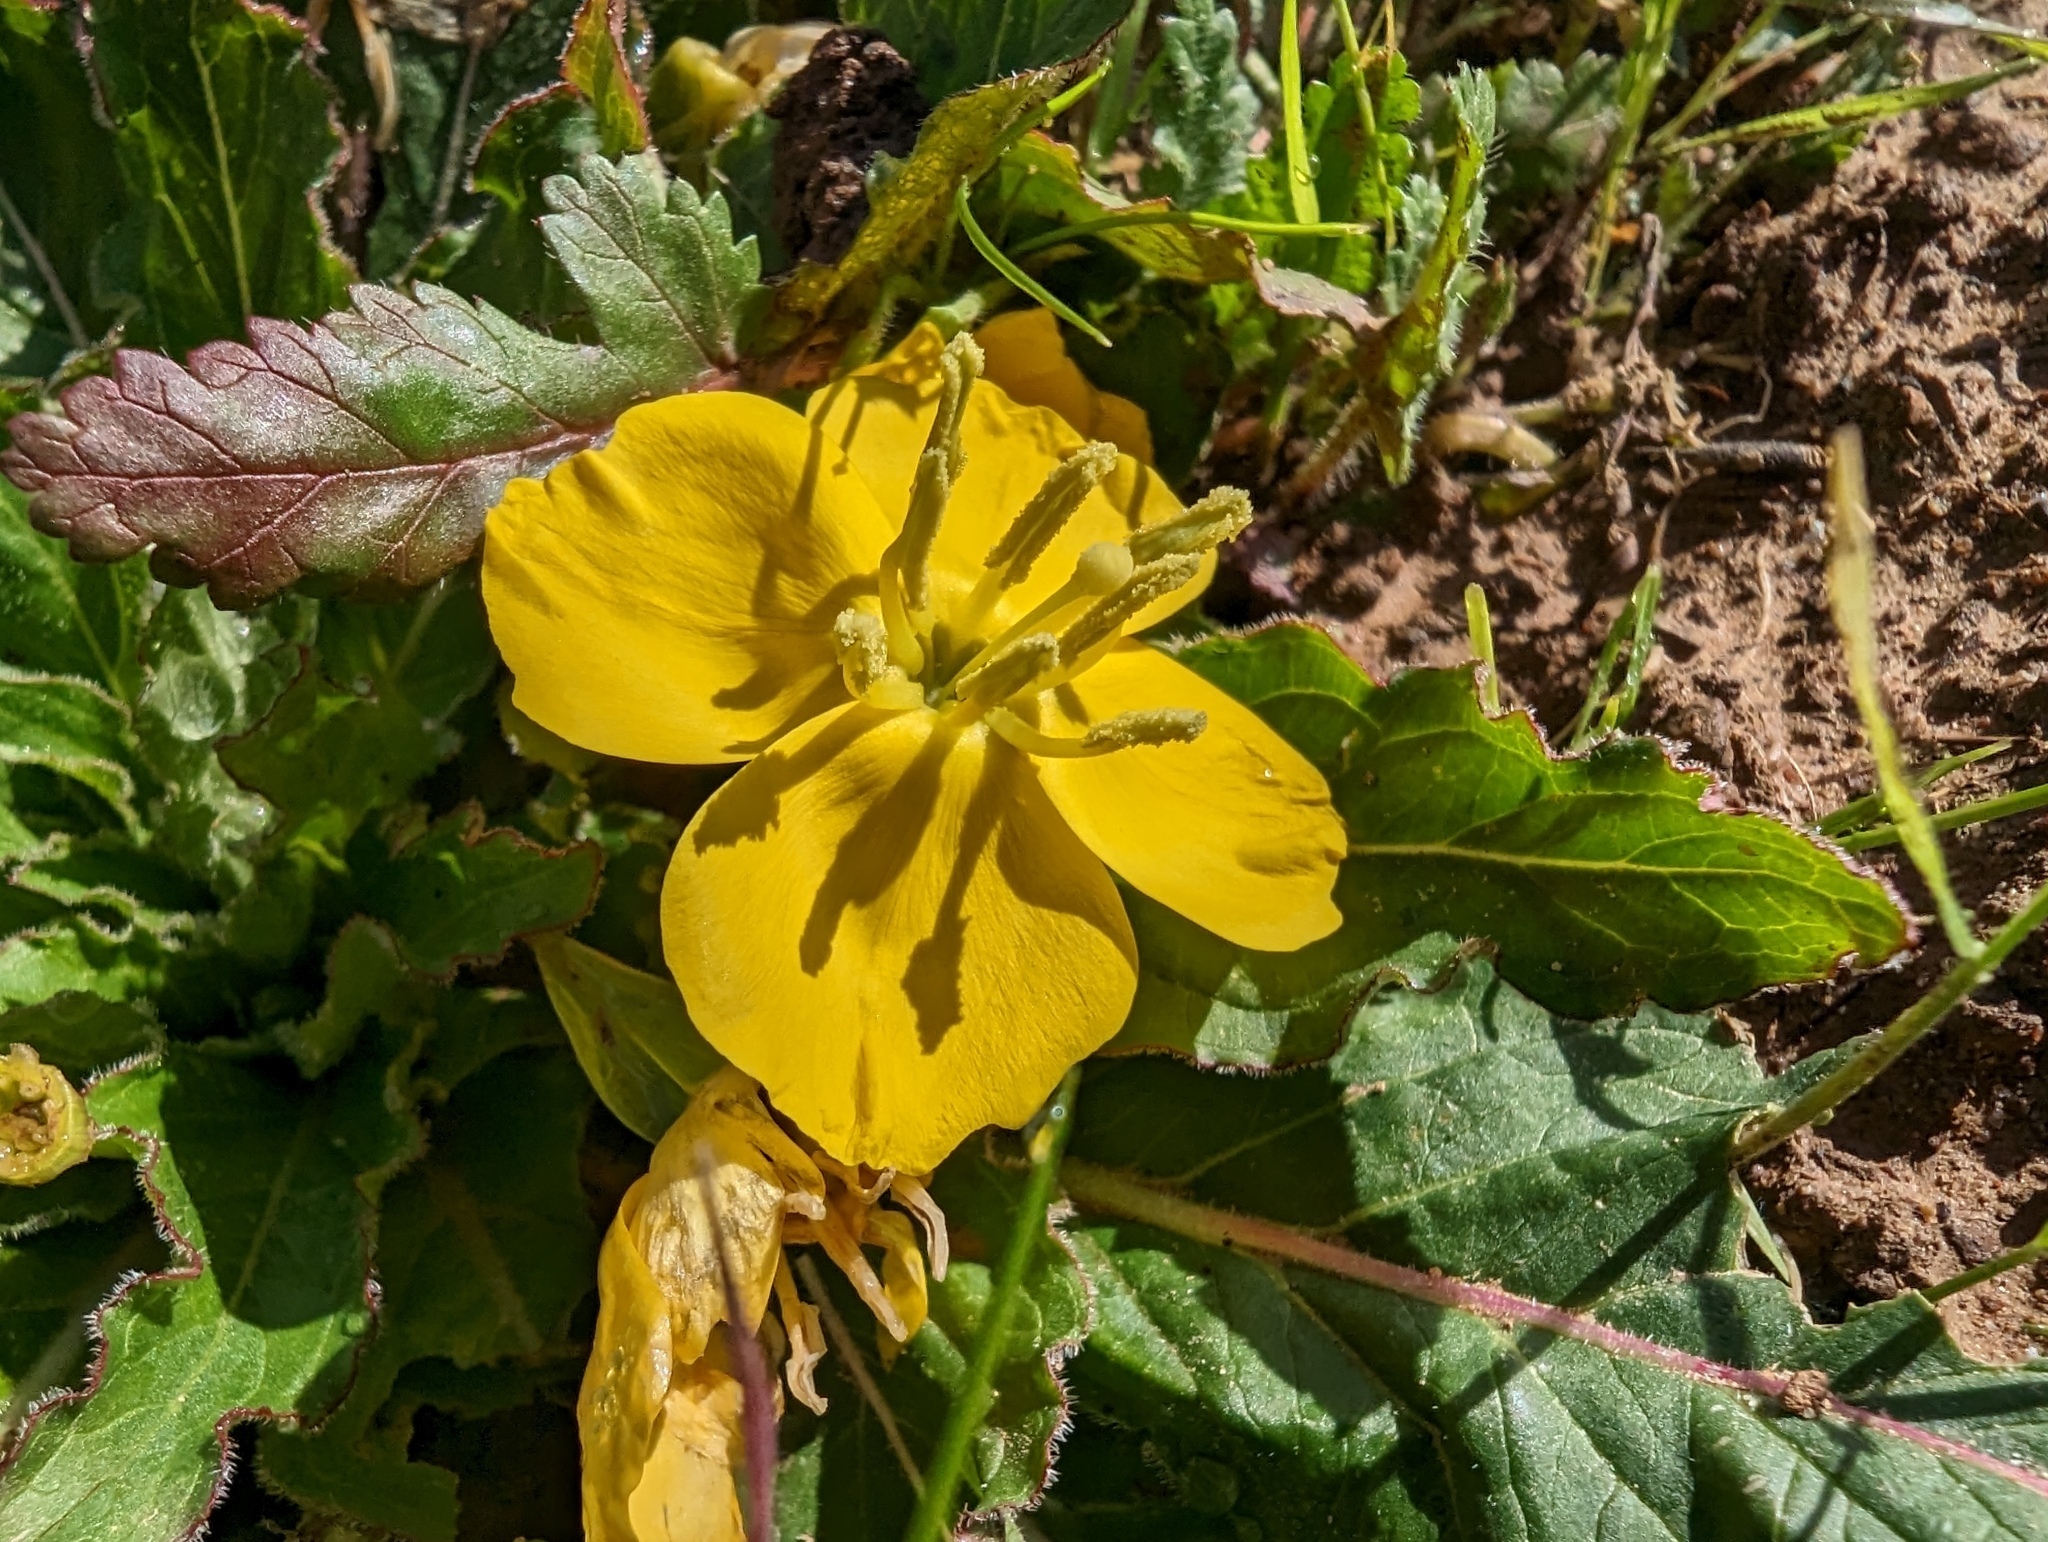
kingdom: Plantae
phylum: Tracheophyta
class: Magnoliopsida
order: Myrtales
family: Onagraceae
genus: Taraxia
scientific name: Taraxia ovata
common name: Goldeneggs
